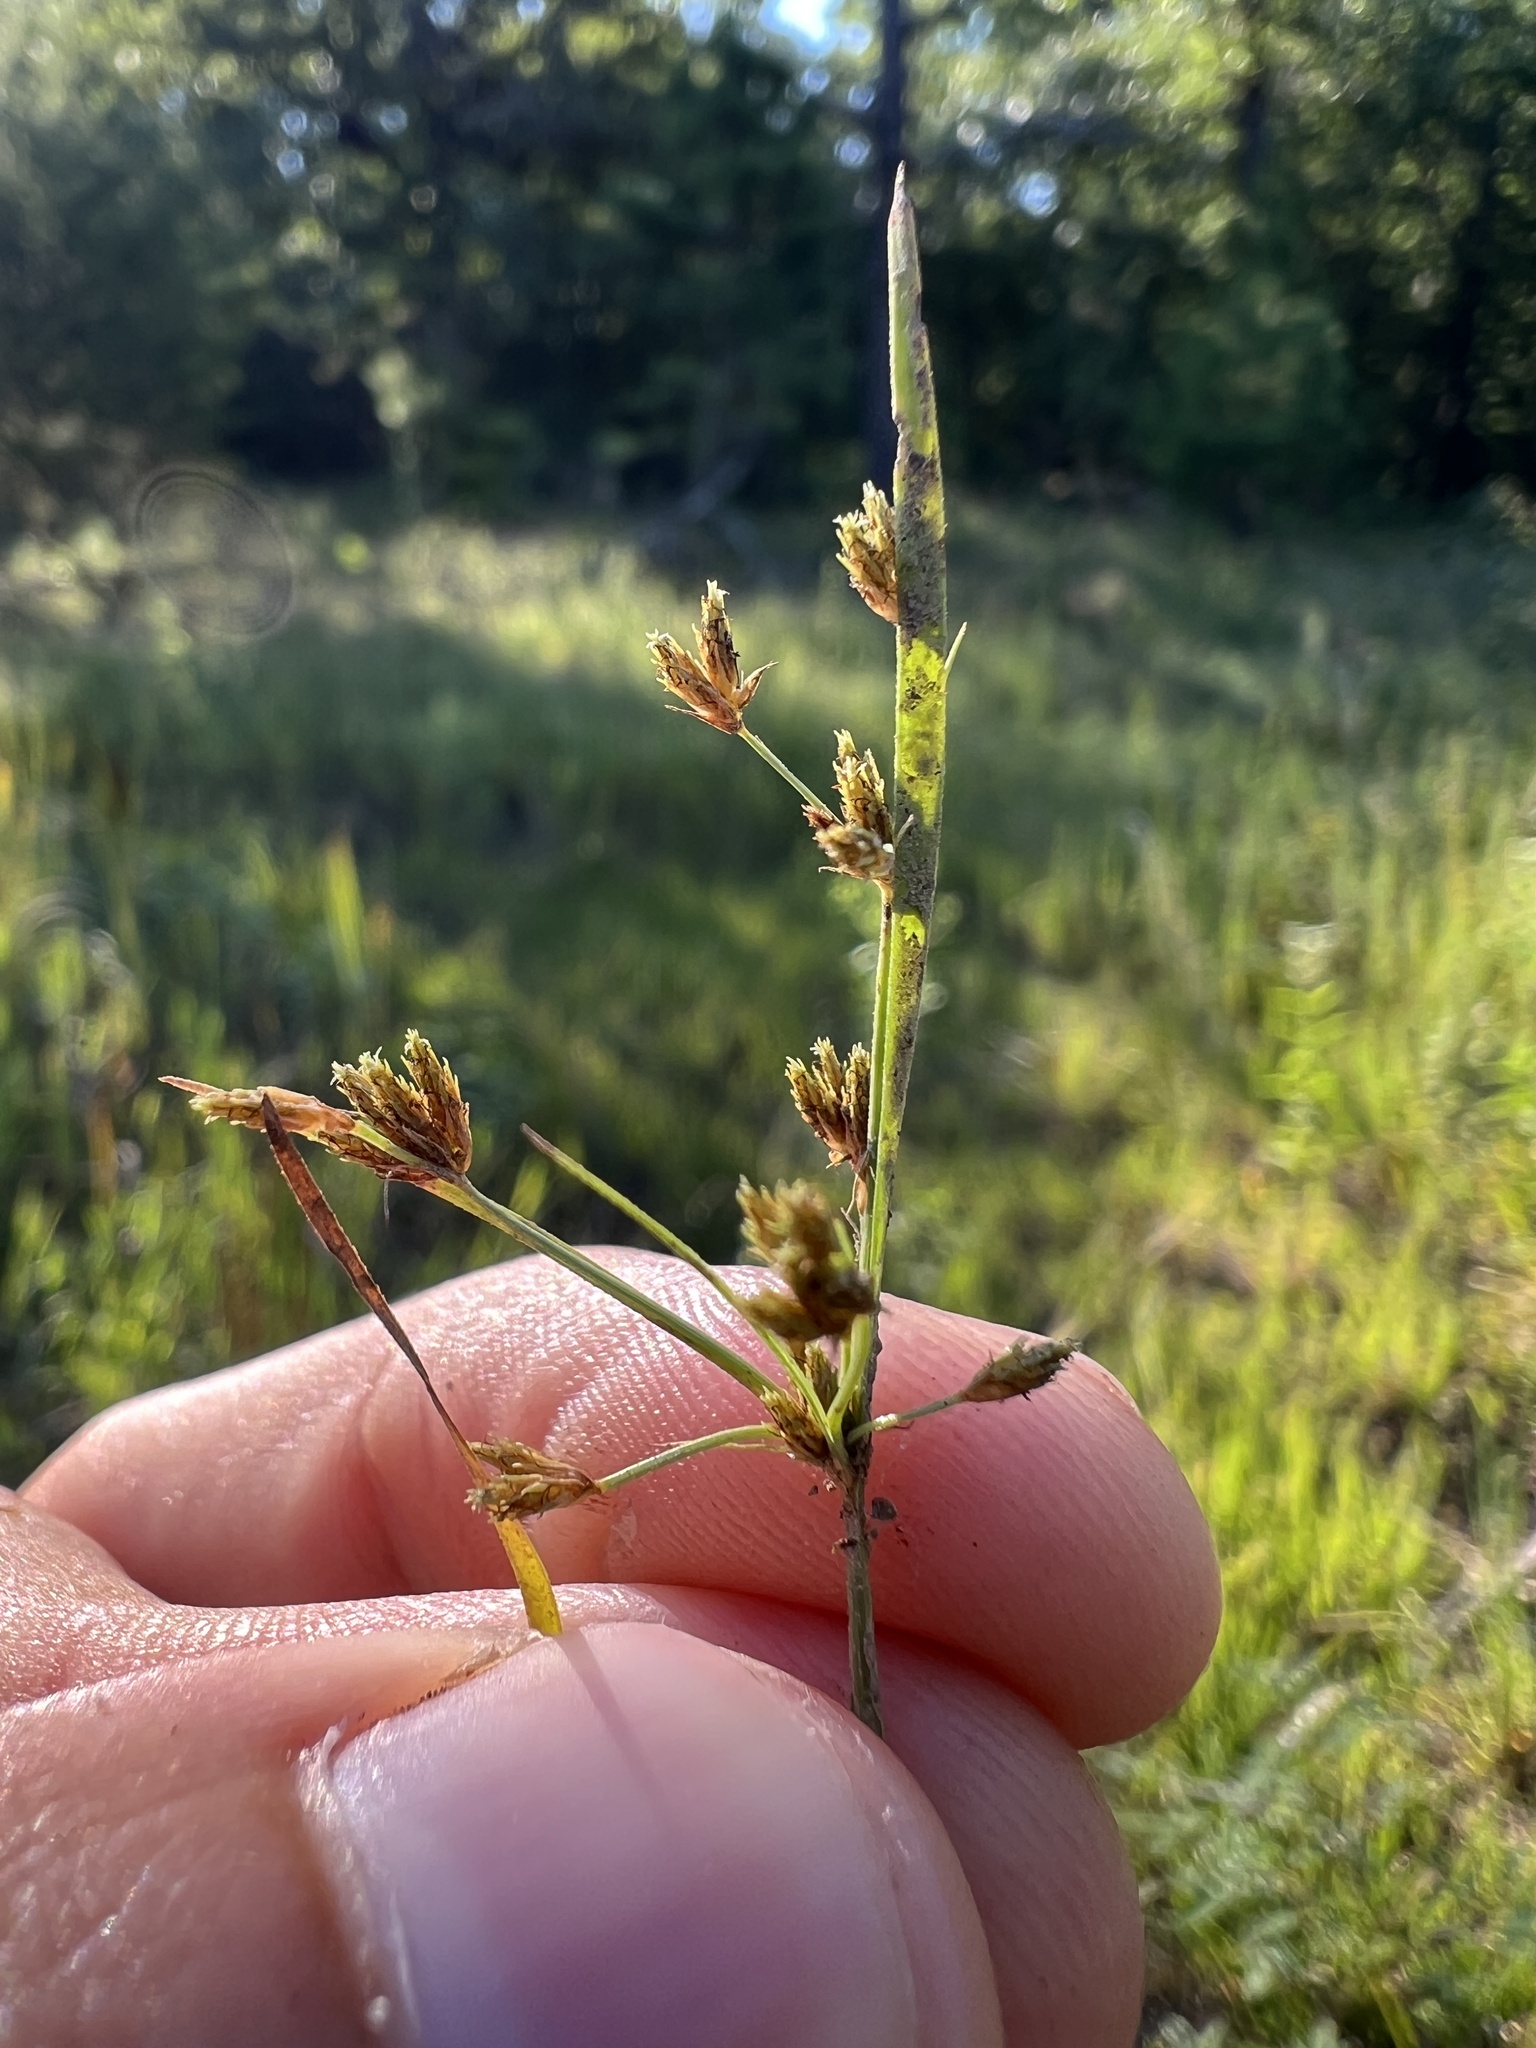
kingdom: Plantae
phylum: Tracheophyta
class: Liliopsida
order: Poales
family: Cyperaceae
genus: Fimbristylis
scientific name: Fimbristylis autumnalis
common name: Slender fimbristylis
